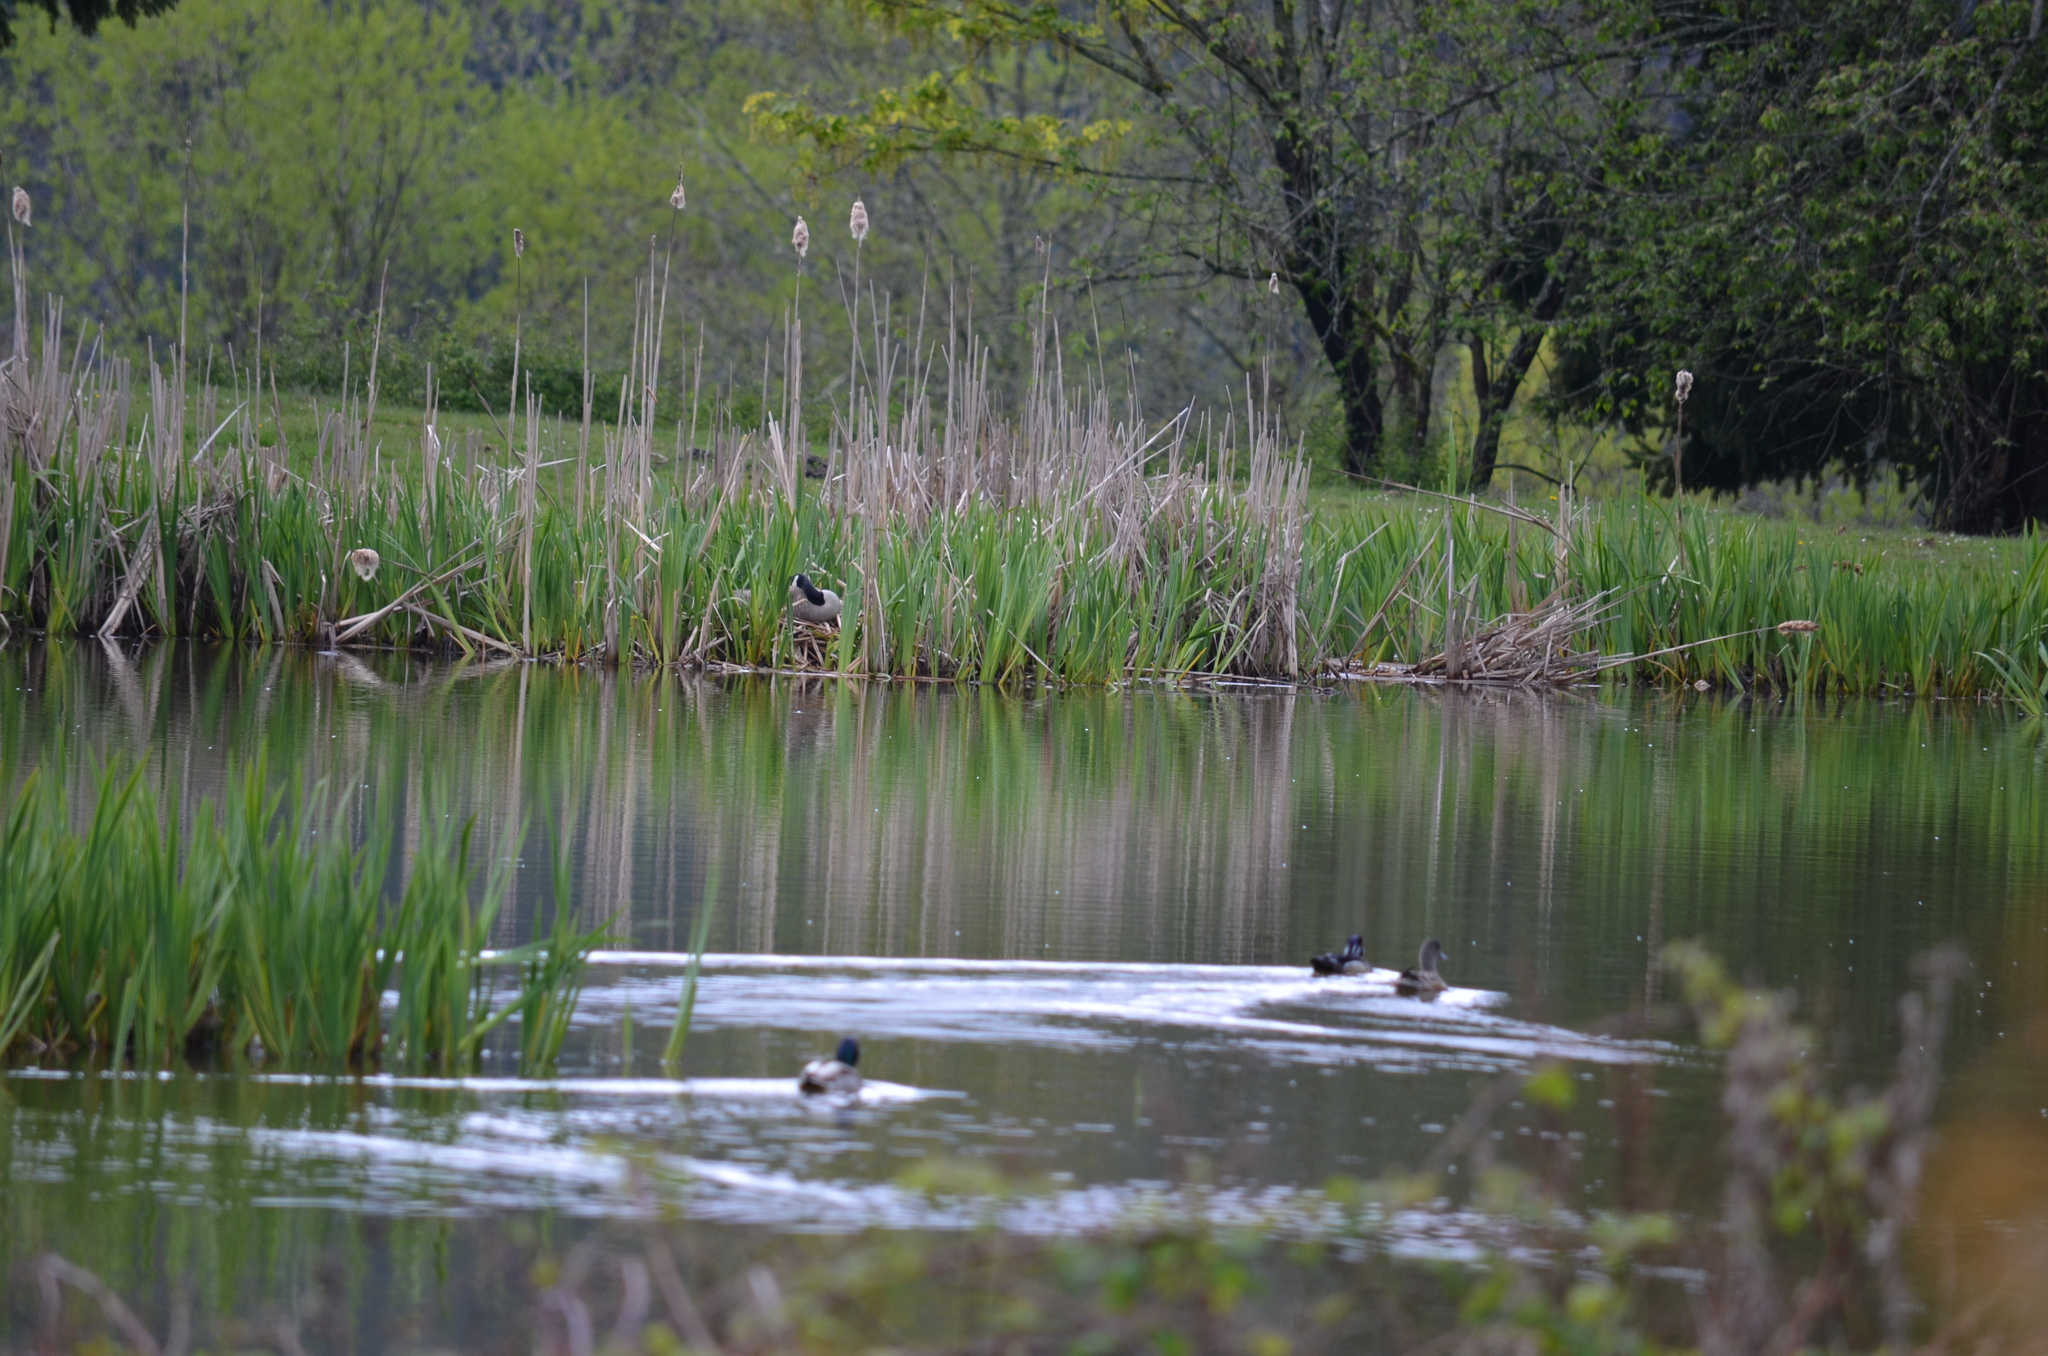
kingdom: Animalia
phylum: Chordata
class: Aves
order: Anseriformes
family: Anatidae
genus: Branta
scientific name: Branta canadensis
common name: Canada goose
